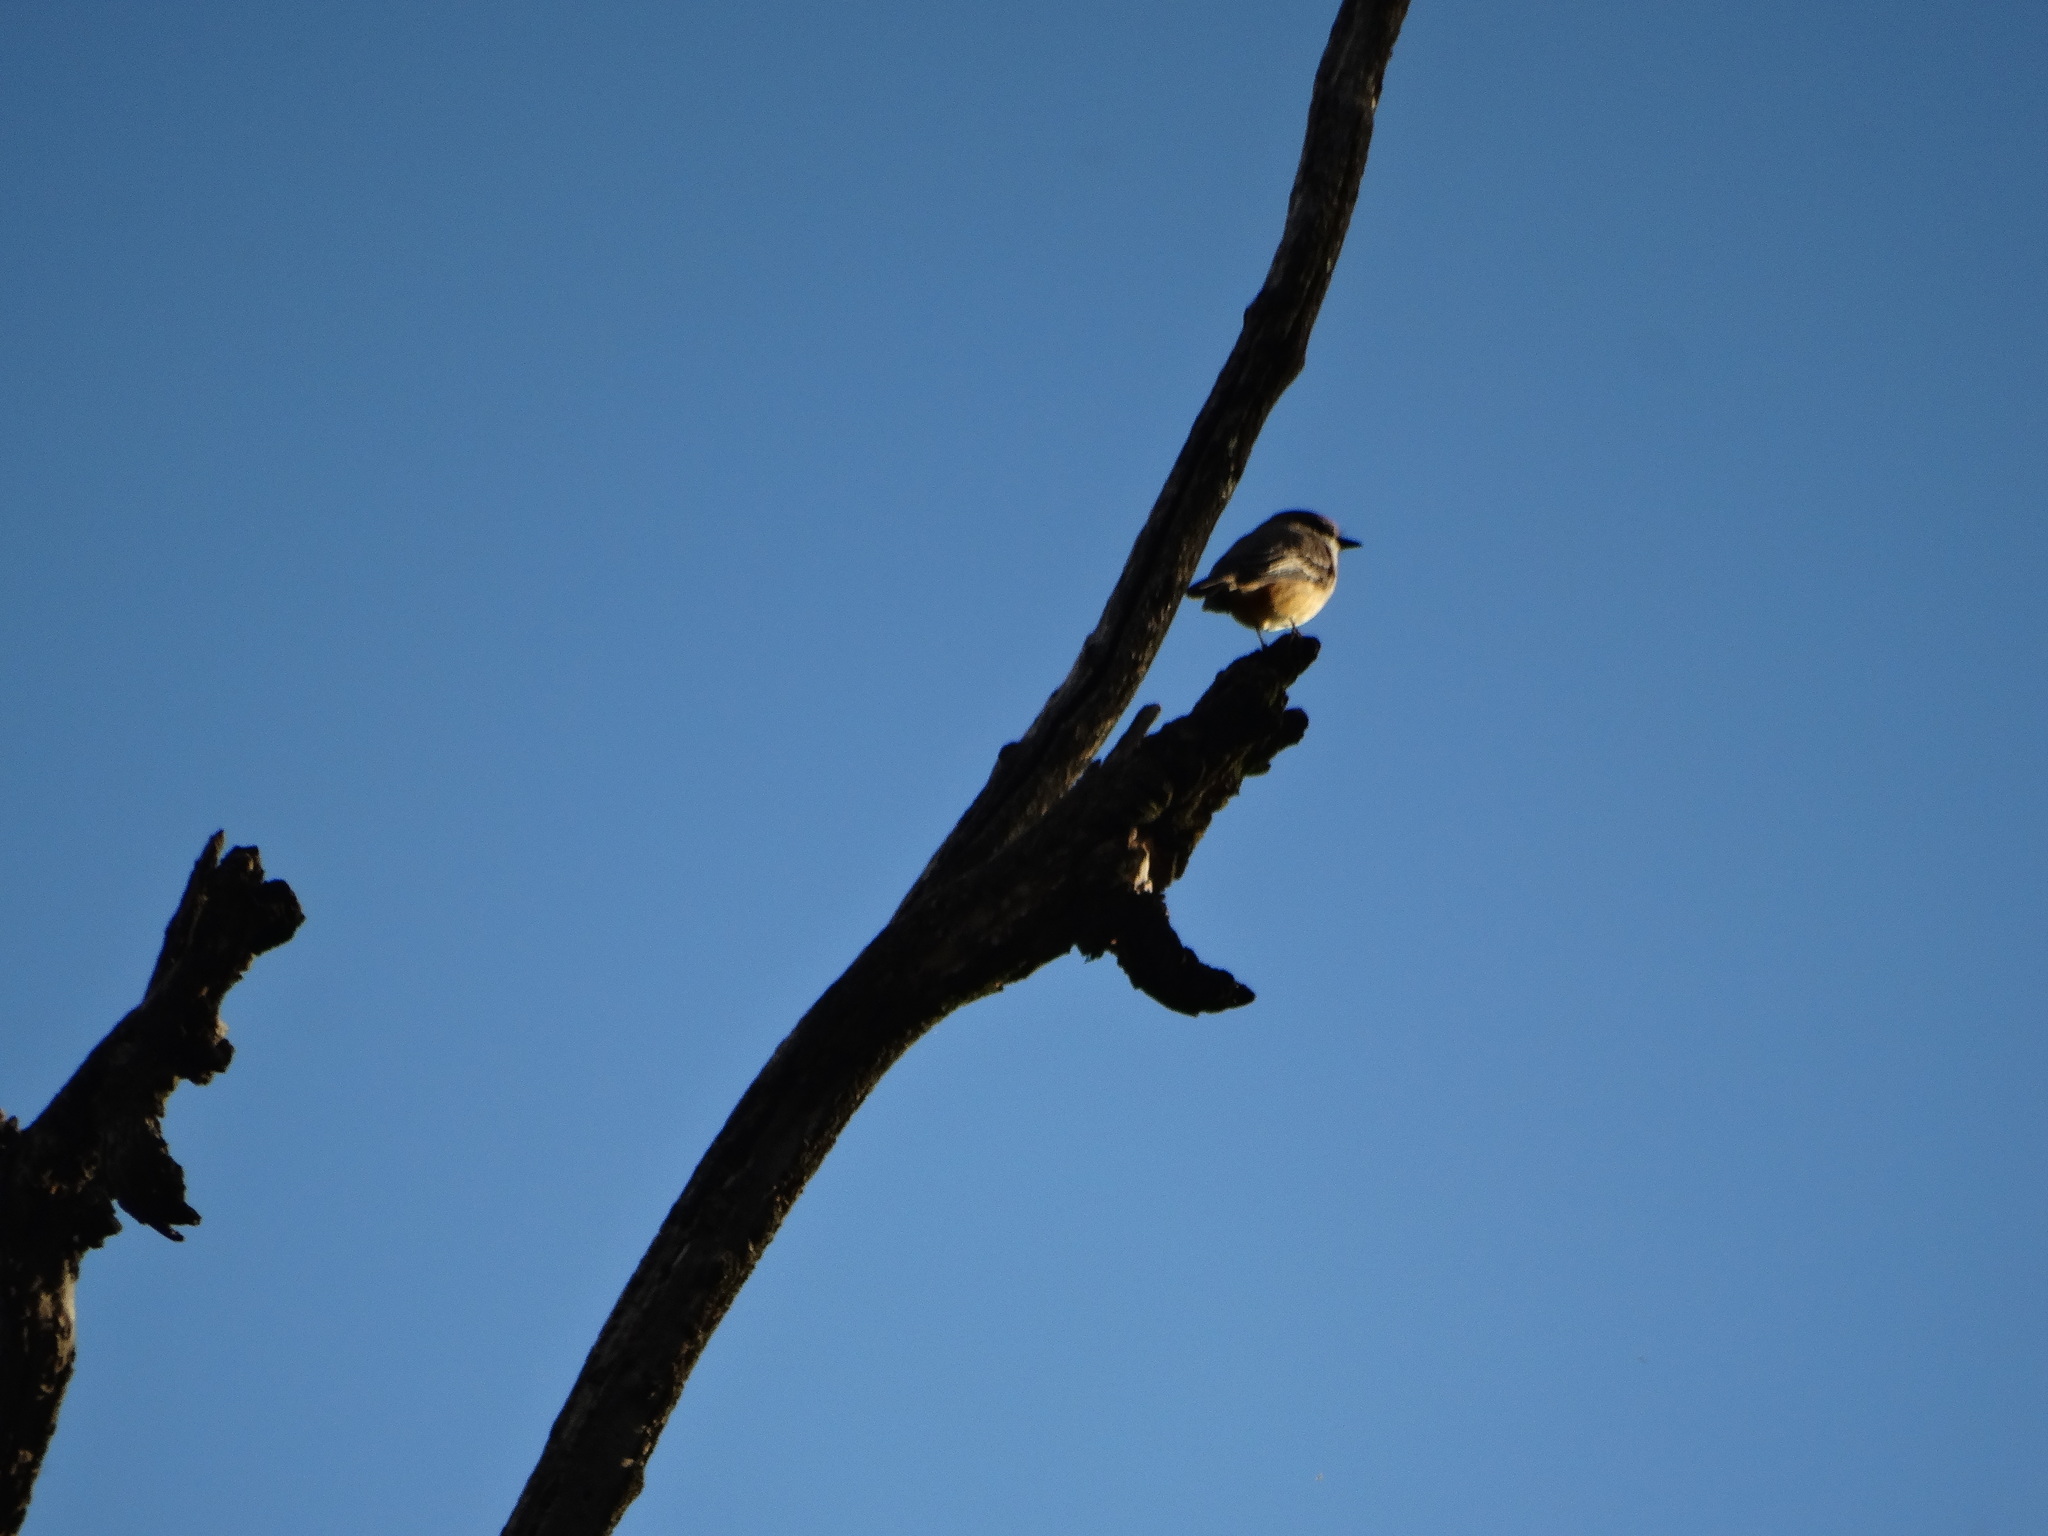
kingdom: Animalia
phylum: Chordata
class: Aves
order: Passeriformes
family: Tyrannidae
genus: Pyrocephalus
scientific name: Pyrocephalus rubinus
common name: Vermilion flycatcher
